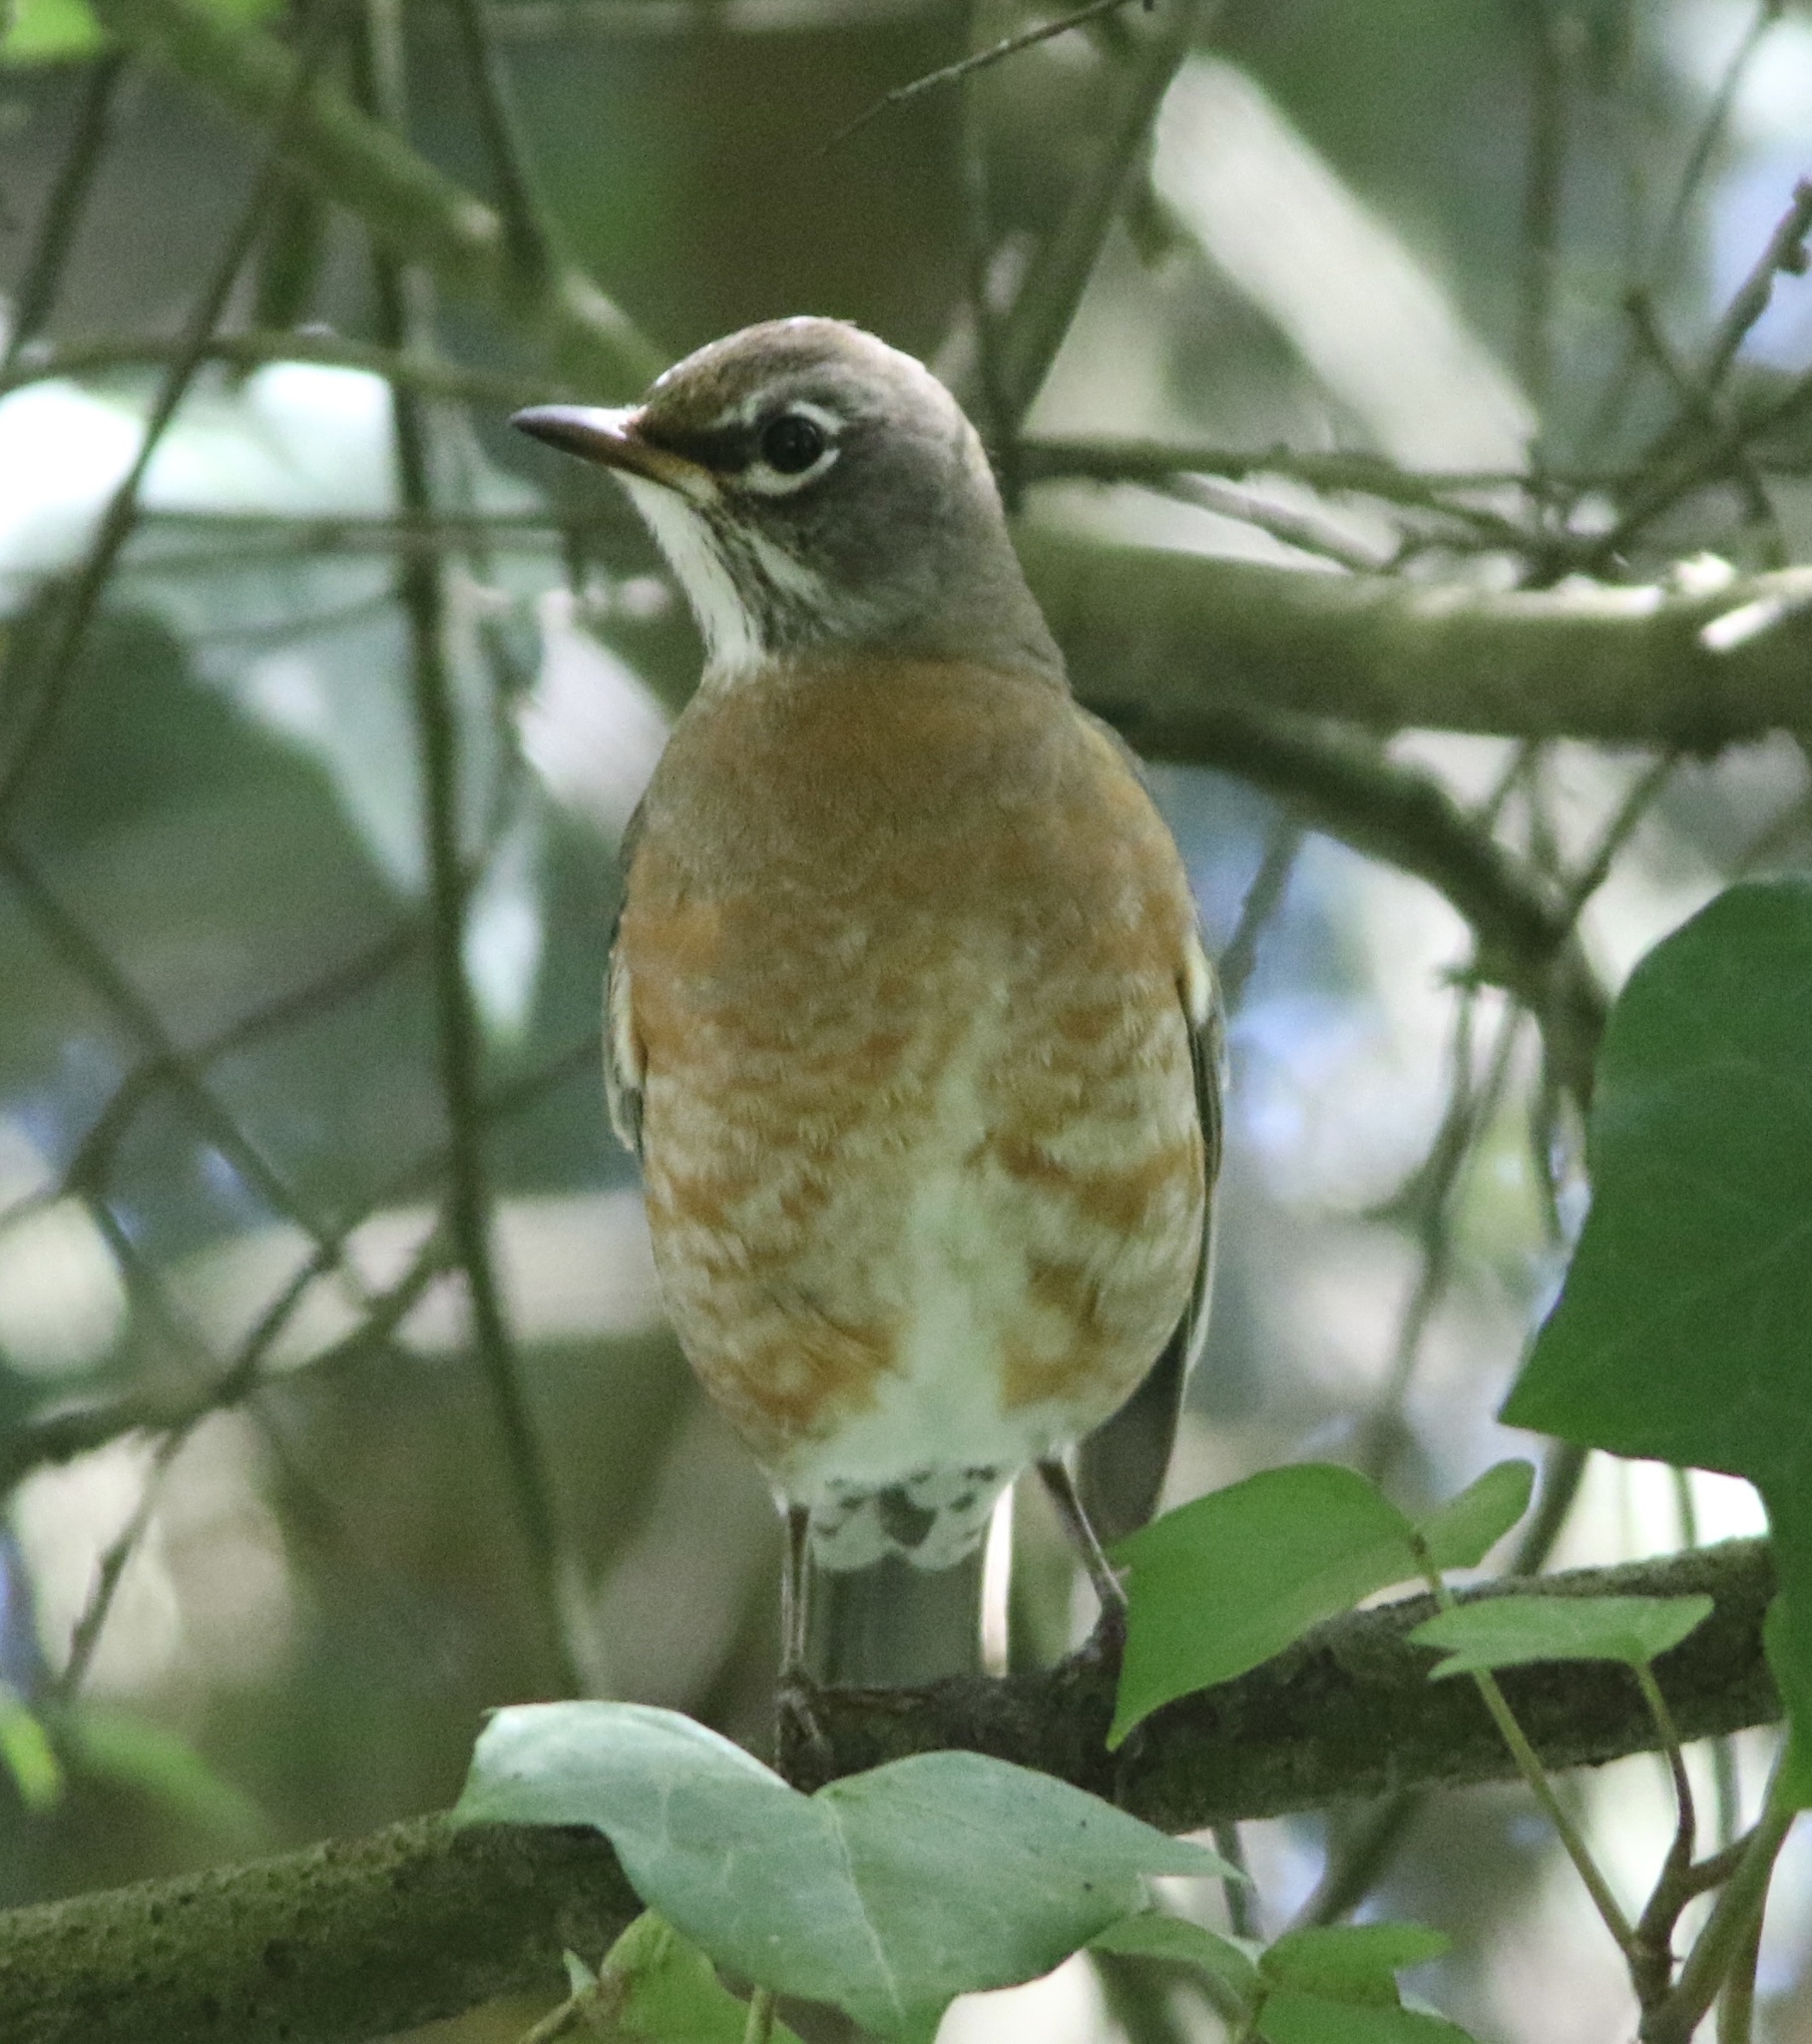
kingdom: Animalia
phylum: Chordata
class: Aves
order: Passeriformes
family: Turdidae
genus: Turdus
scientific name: Turdus migratorius
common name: American robin
